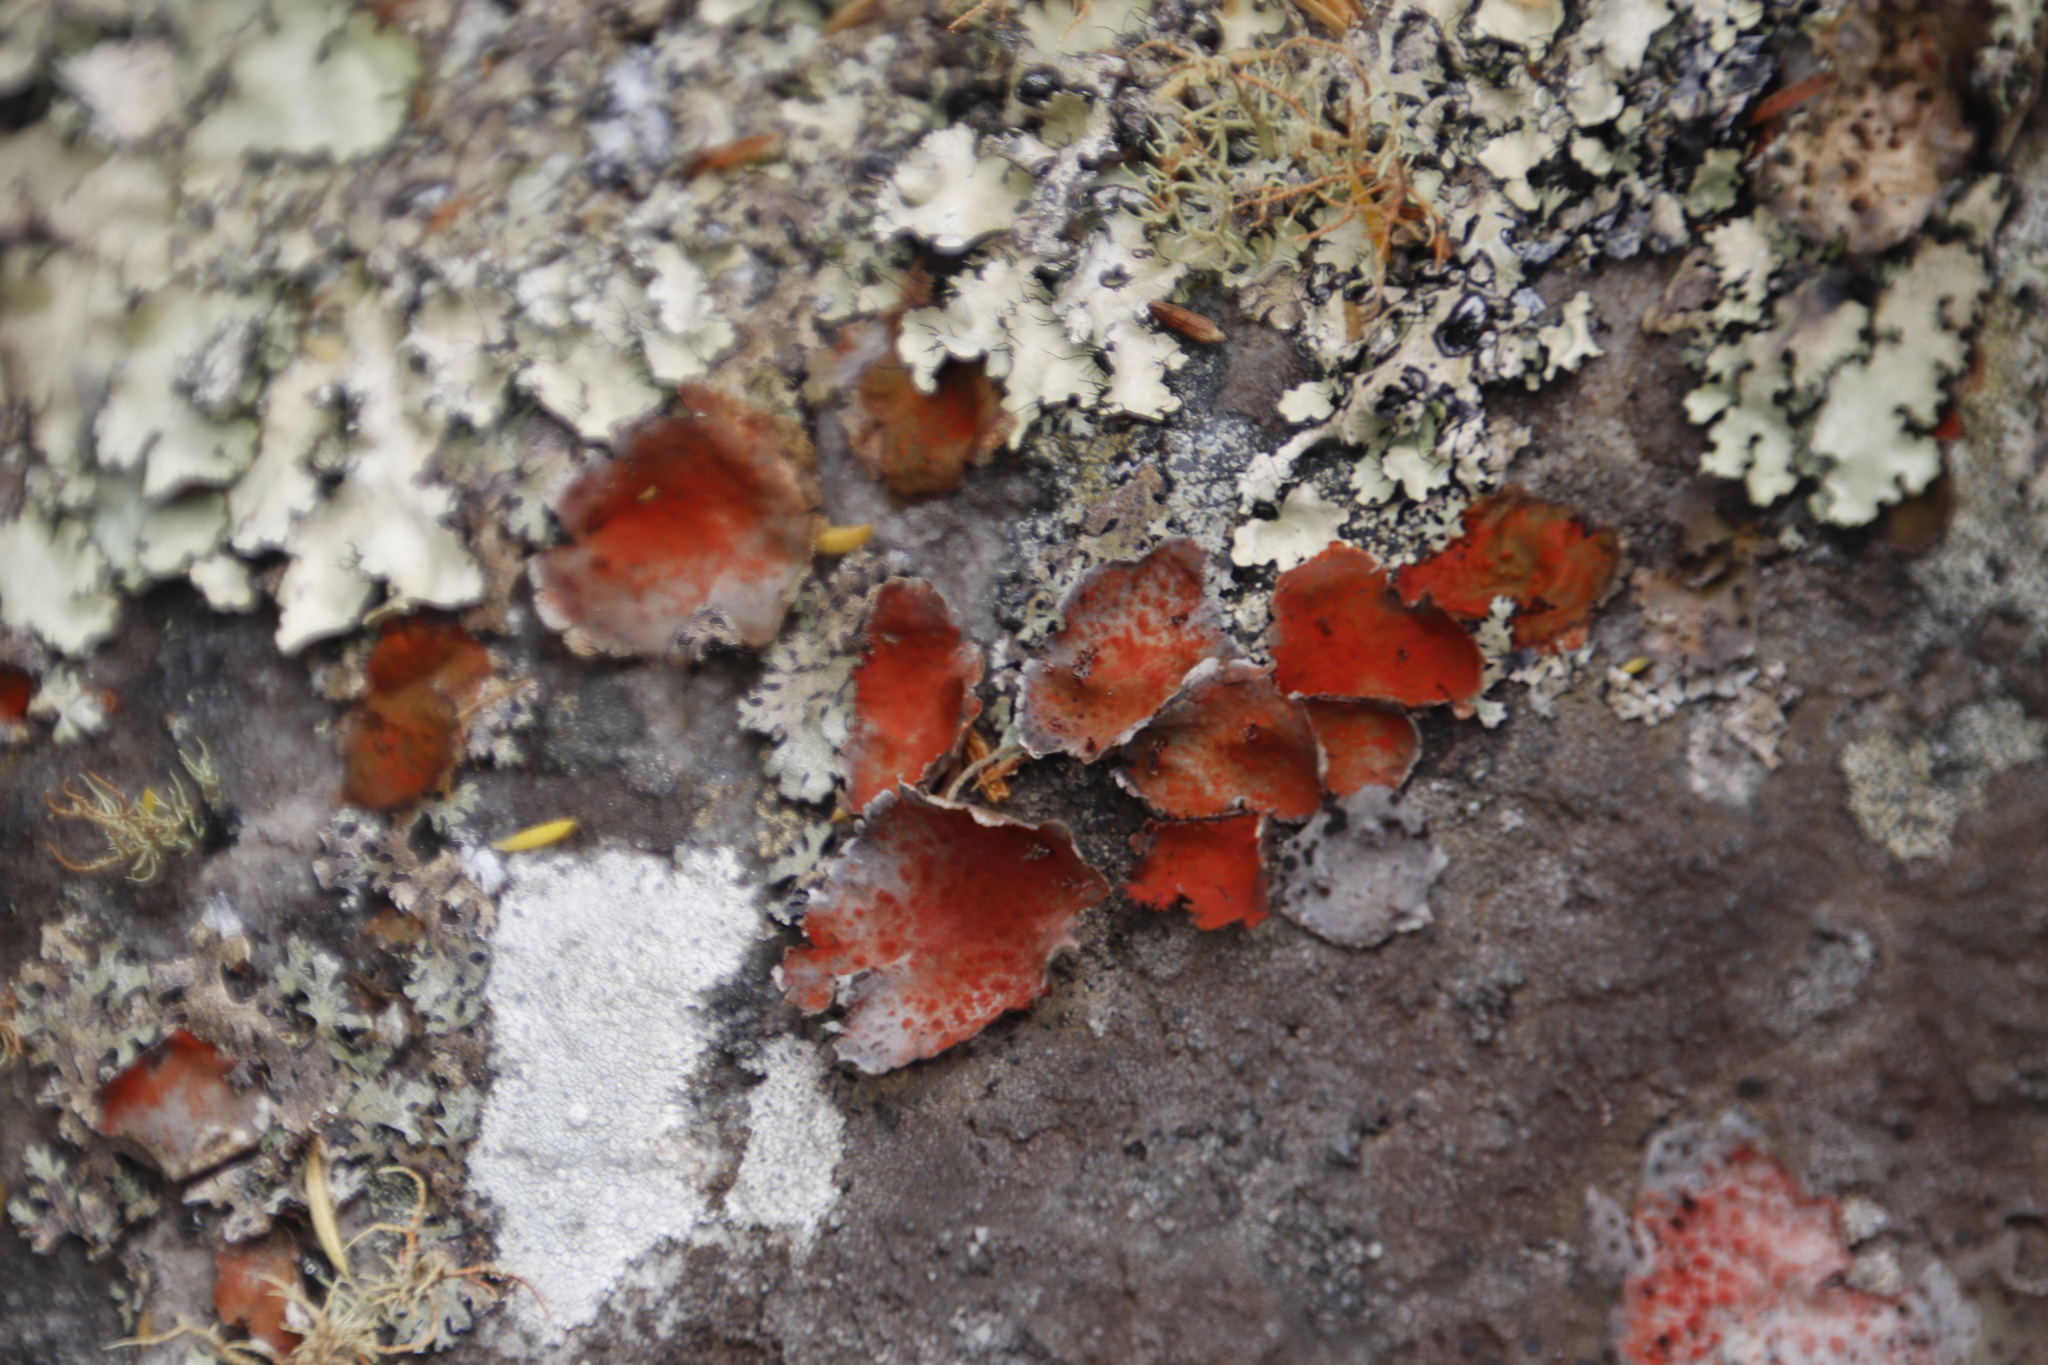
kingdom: Fungi
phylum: Ascomycota
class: Lecanoromycetes
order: Umbilicariales
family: Umbilicariaceae
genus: Lasallia
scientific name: Lasallia rubiginosa
